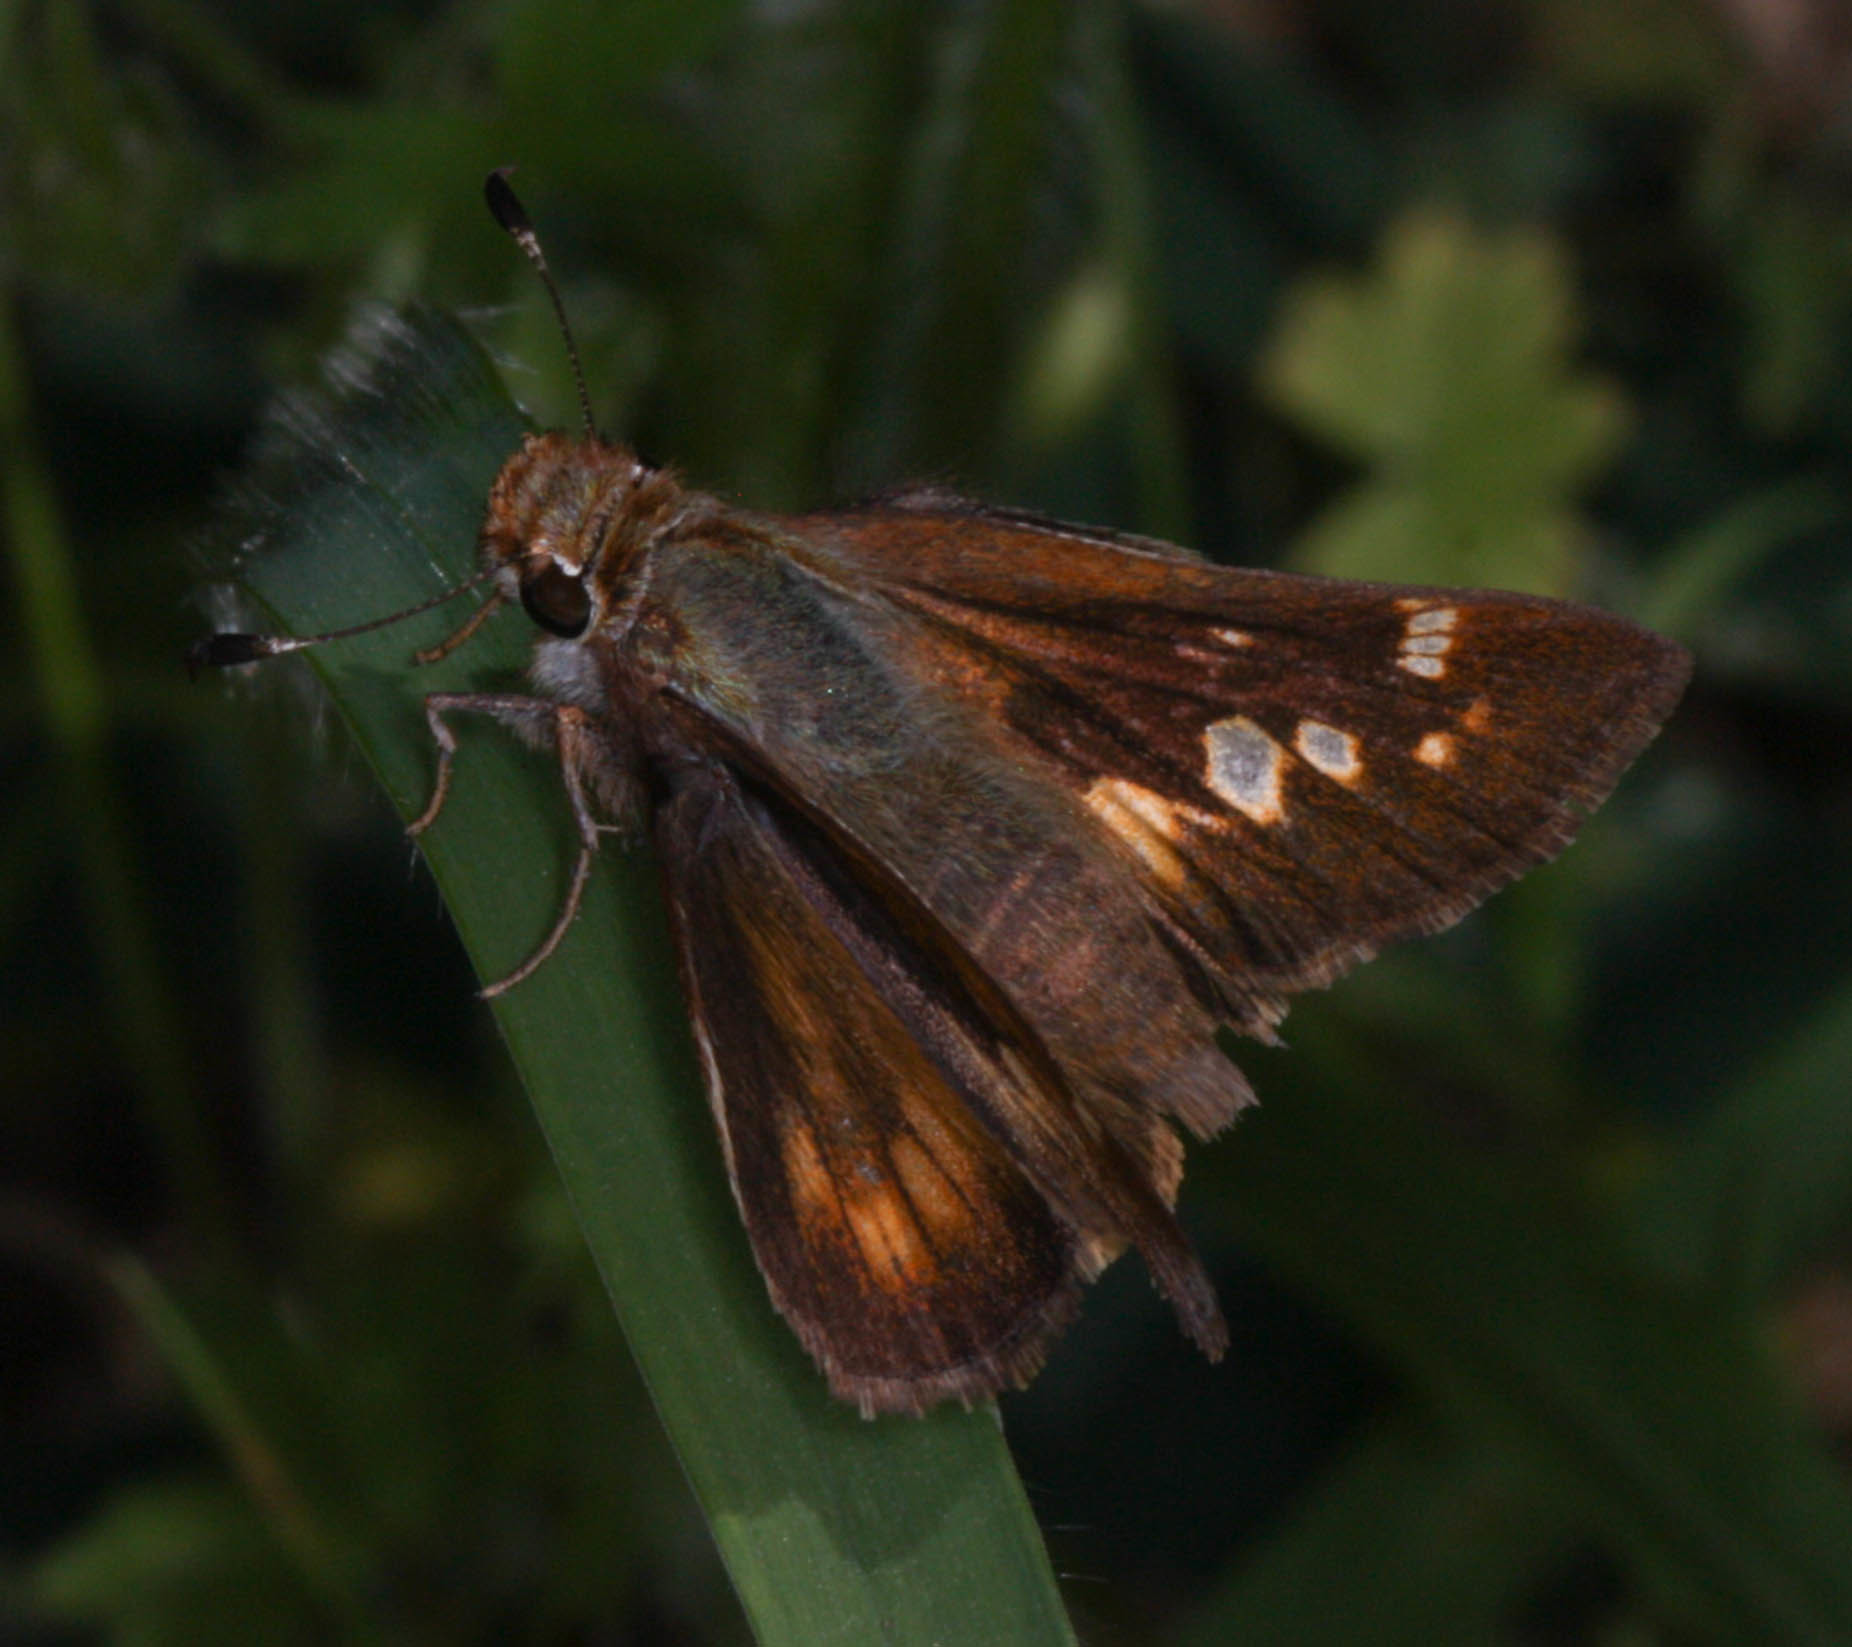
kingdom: Animalia
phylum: Arthropoda
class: Insecta
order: Lepidoptera
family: Hesperiidae
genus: Lon
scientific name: Lon melane
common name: Umber skipper
